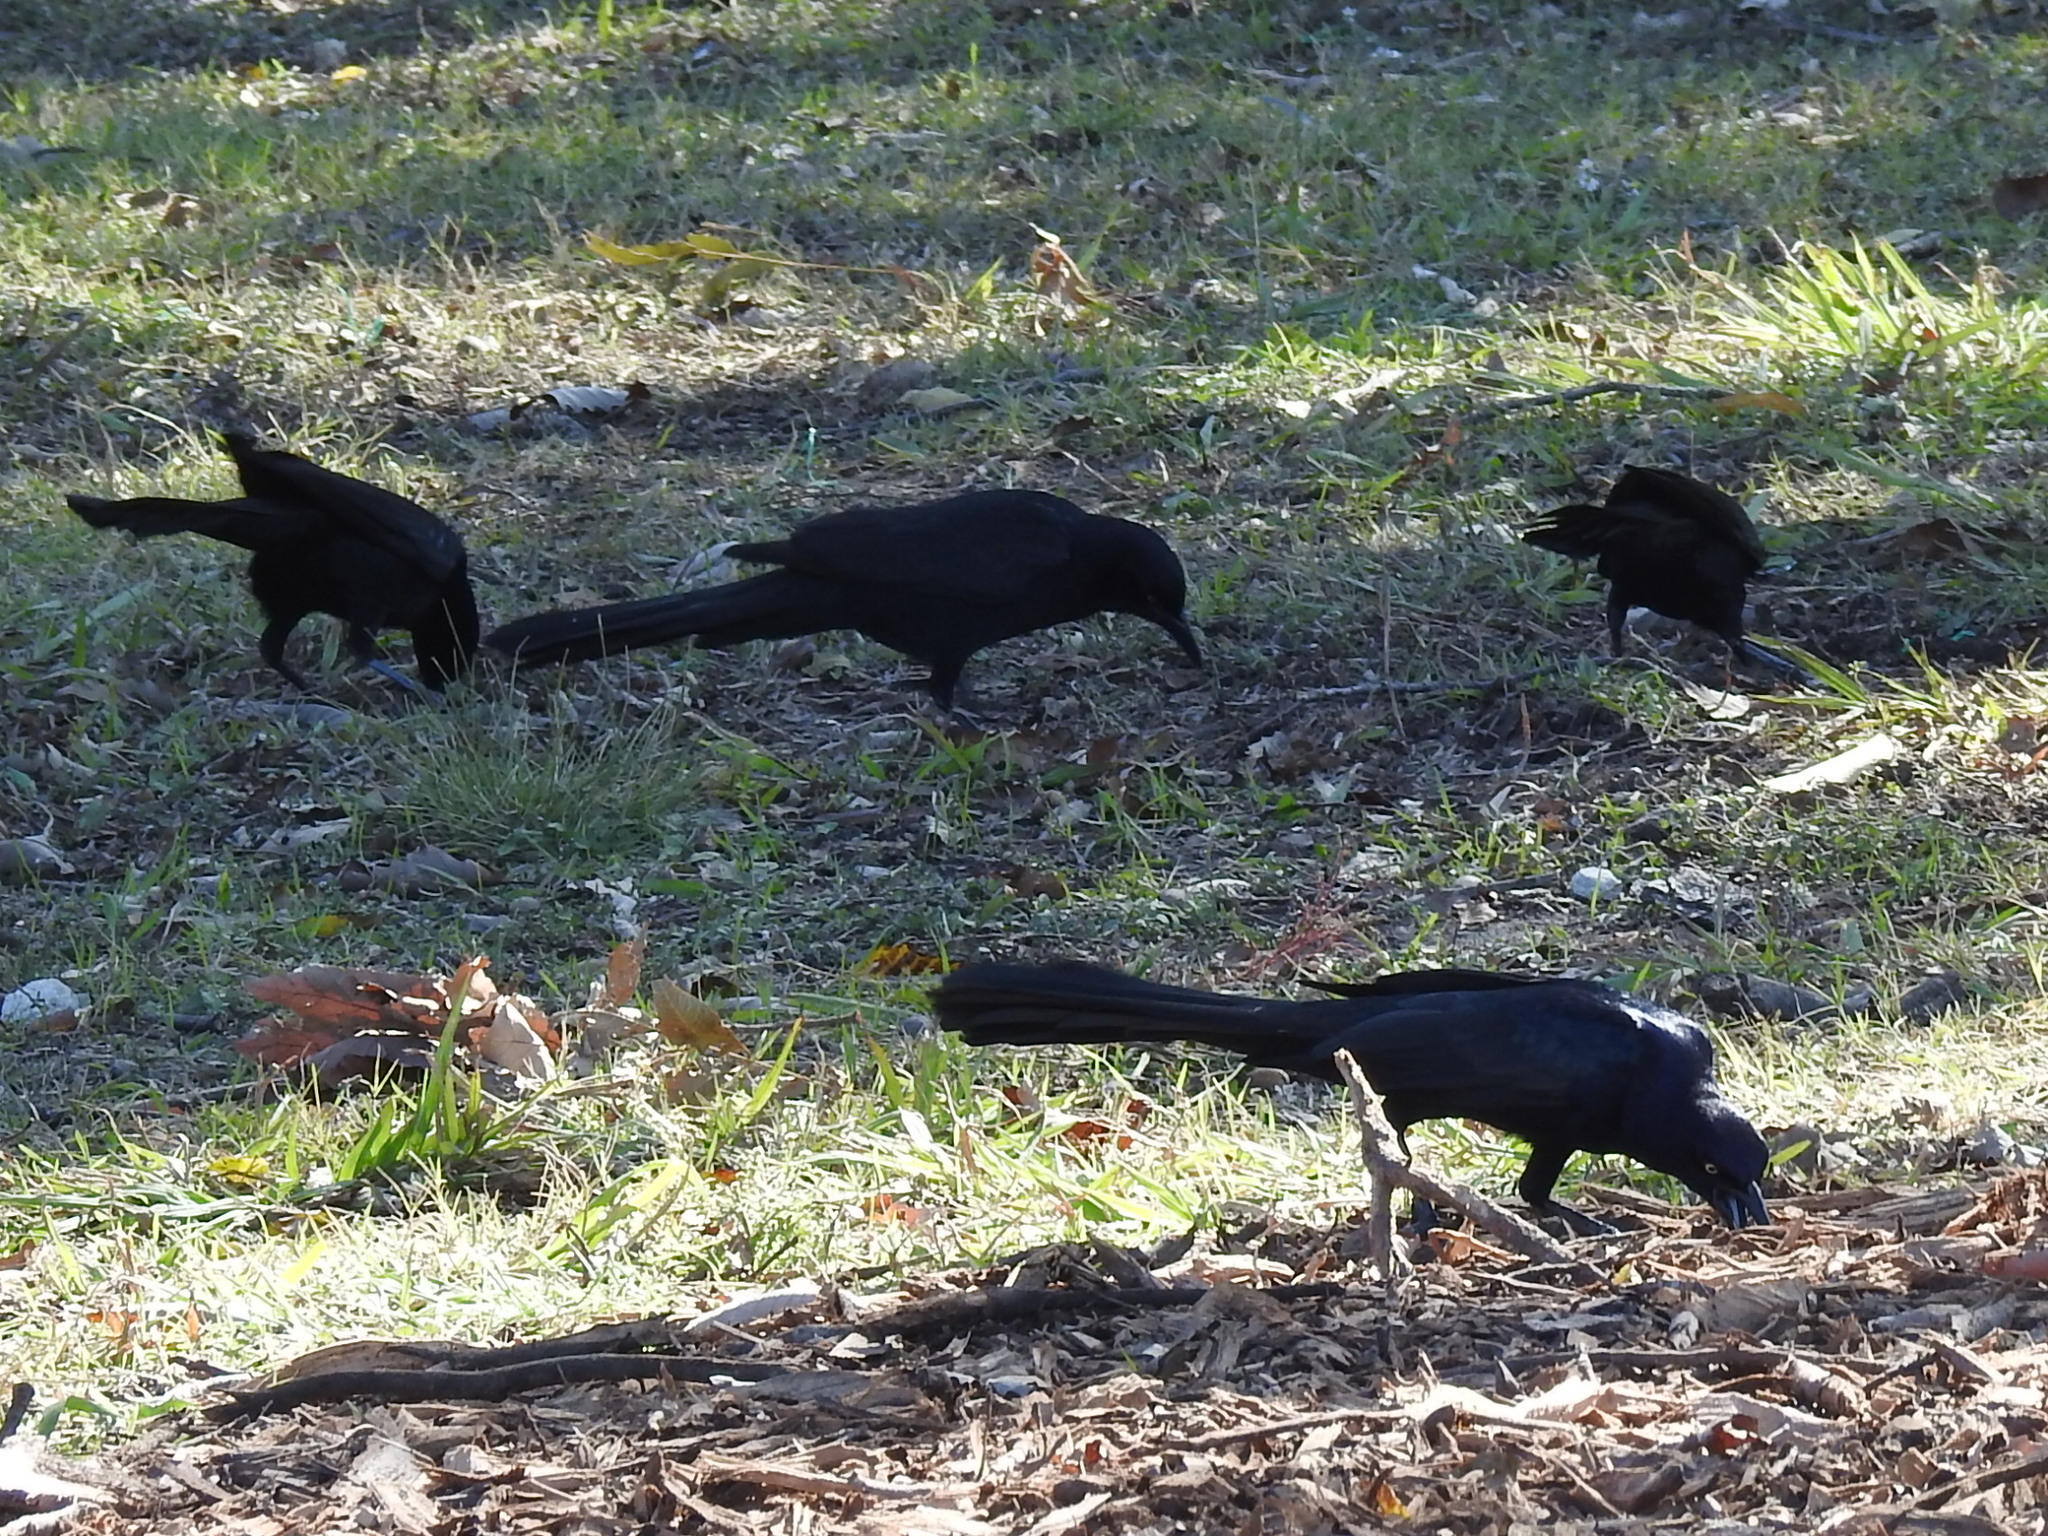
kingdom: Animalia
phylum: Chordata
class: Aves
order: Passeriformes
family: Icteridae
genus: Quiscalus
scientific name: Quiscalus mexicanus
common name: Great-tailed grackle
